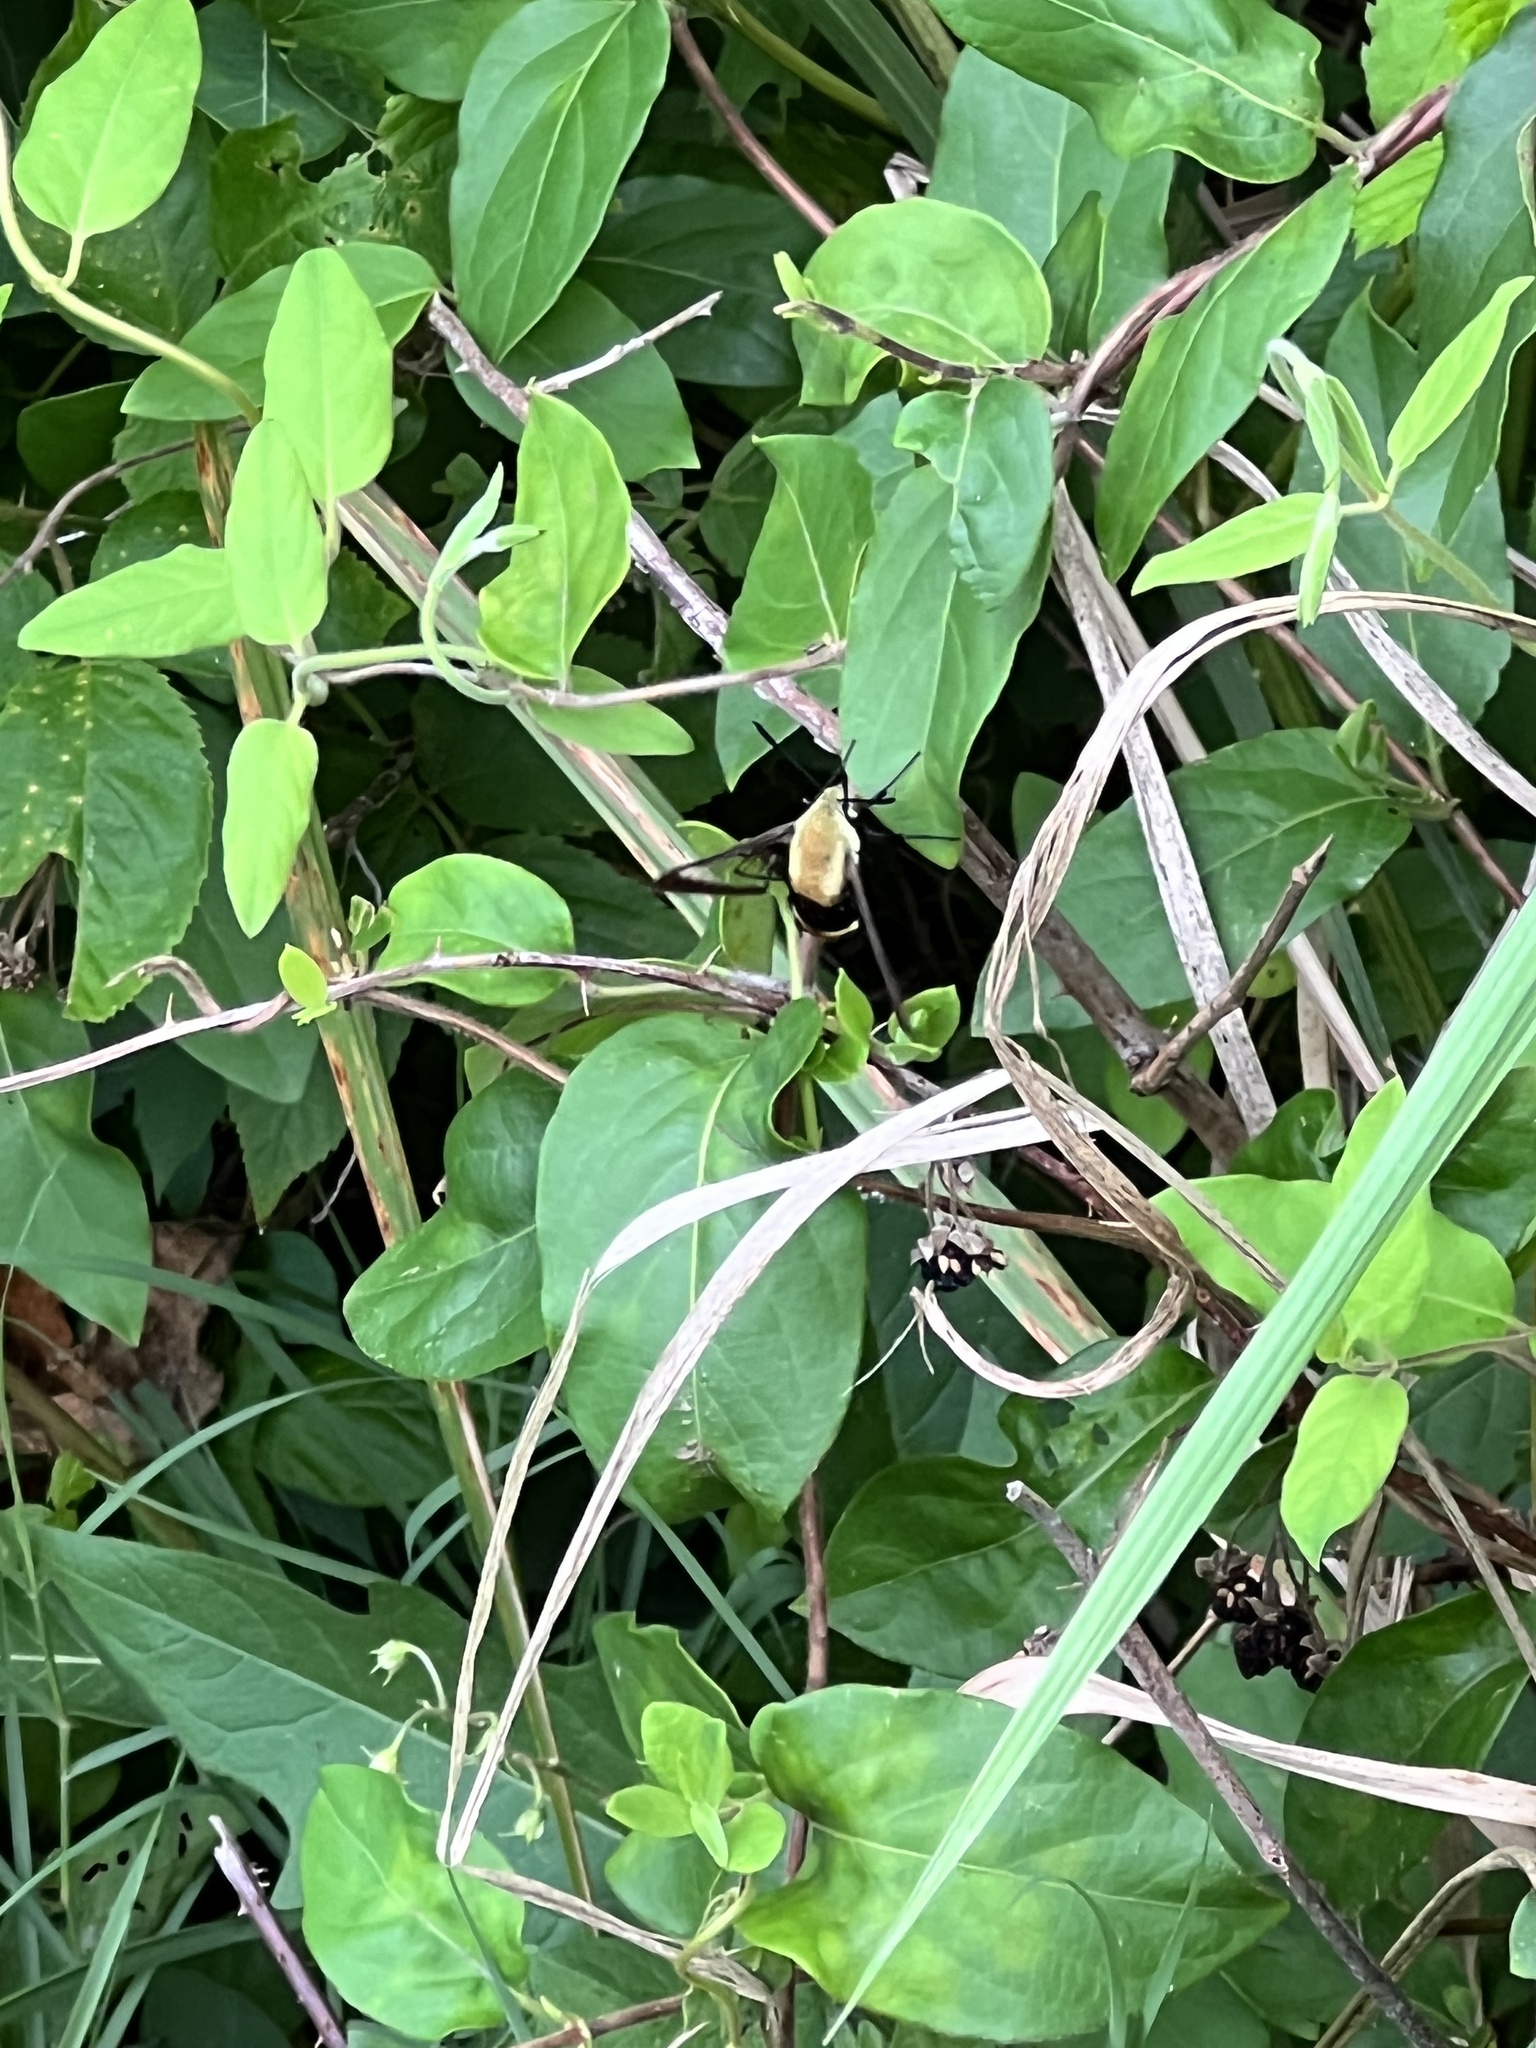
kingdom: Animalia
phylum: Arthropoda
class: Insecta
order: Lepidoptera
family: Sphingidae
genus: Hemaris
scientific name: Hemaris diffinis
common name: Bumblebee moth
